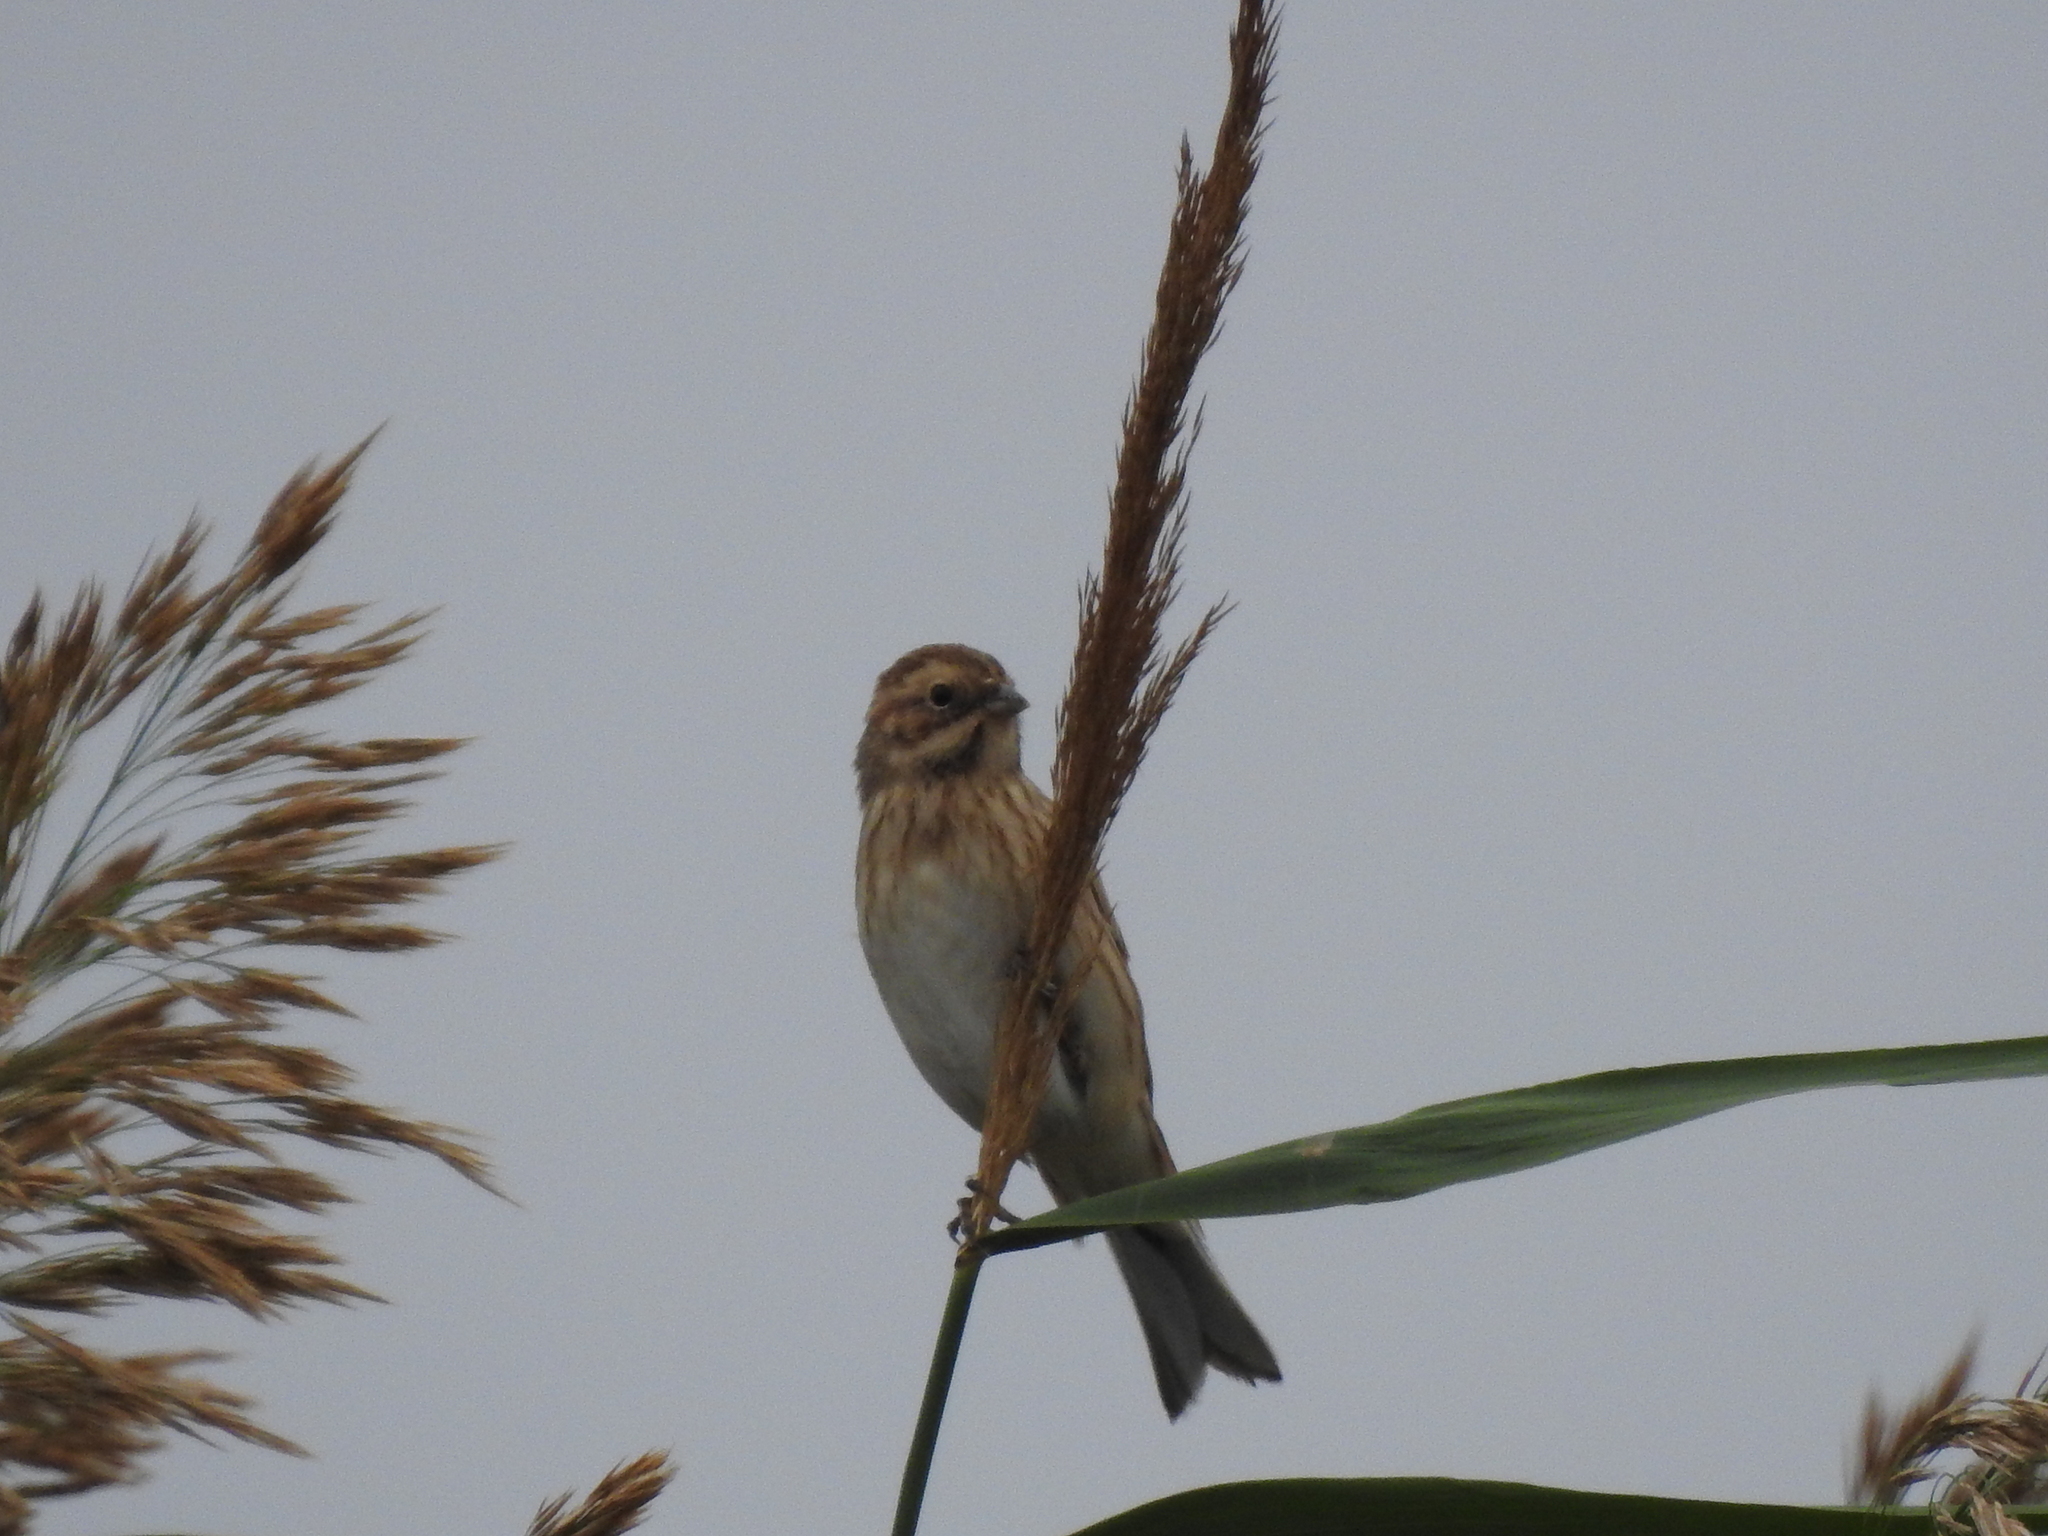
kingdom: Animalia
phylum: Chordata
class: Aves
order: Passeriformes
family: Emberizidae
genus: Emberiza
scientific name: Emberiza schoeniclus
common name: Reed bunting
